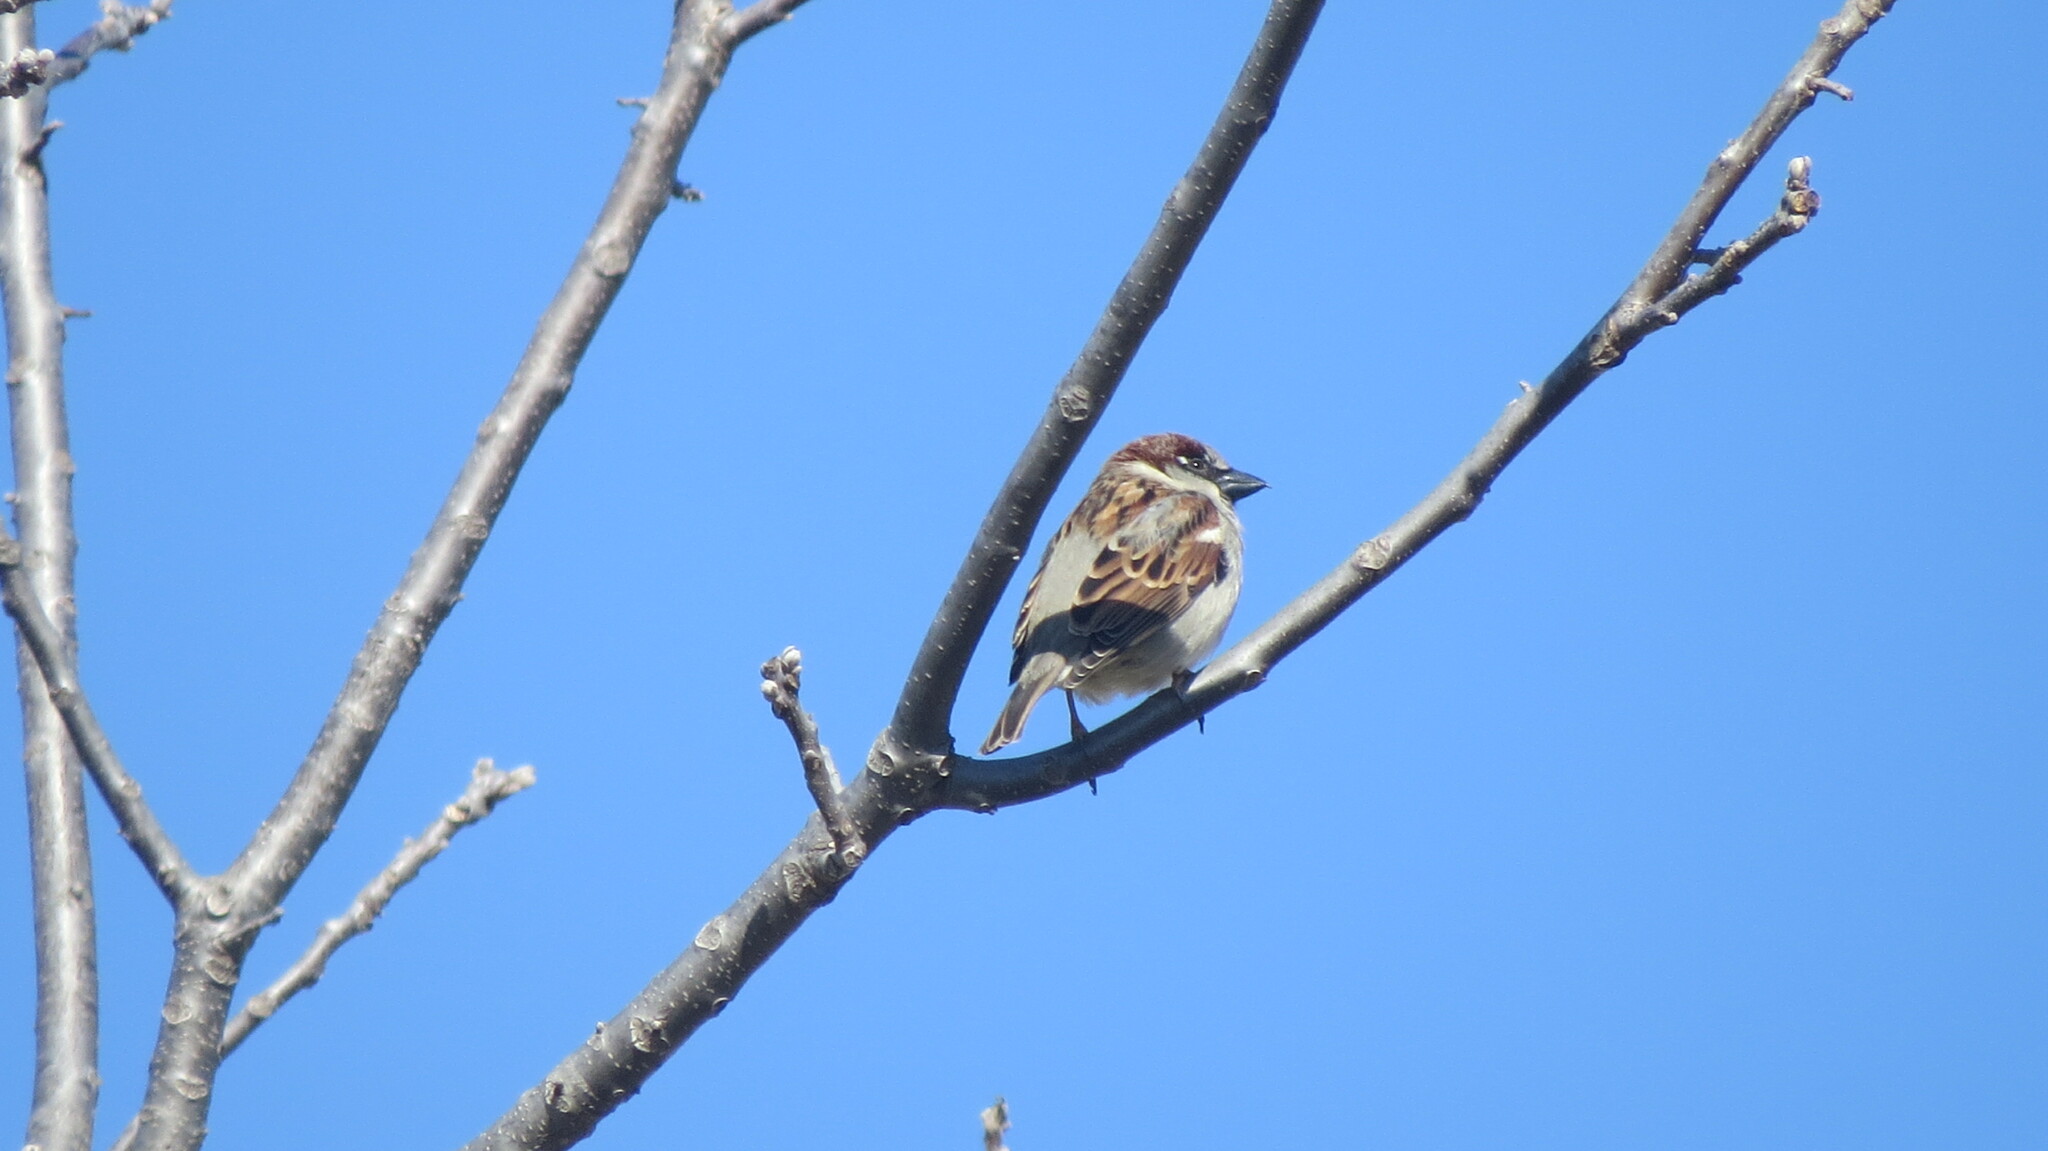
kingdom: Animalia
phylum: Chordata
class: Aves
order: Passeriformes
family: Passeridae
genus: Passer
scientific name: Passer domesticus
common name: House sparrow
